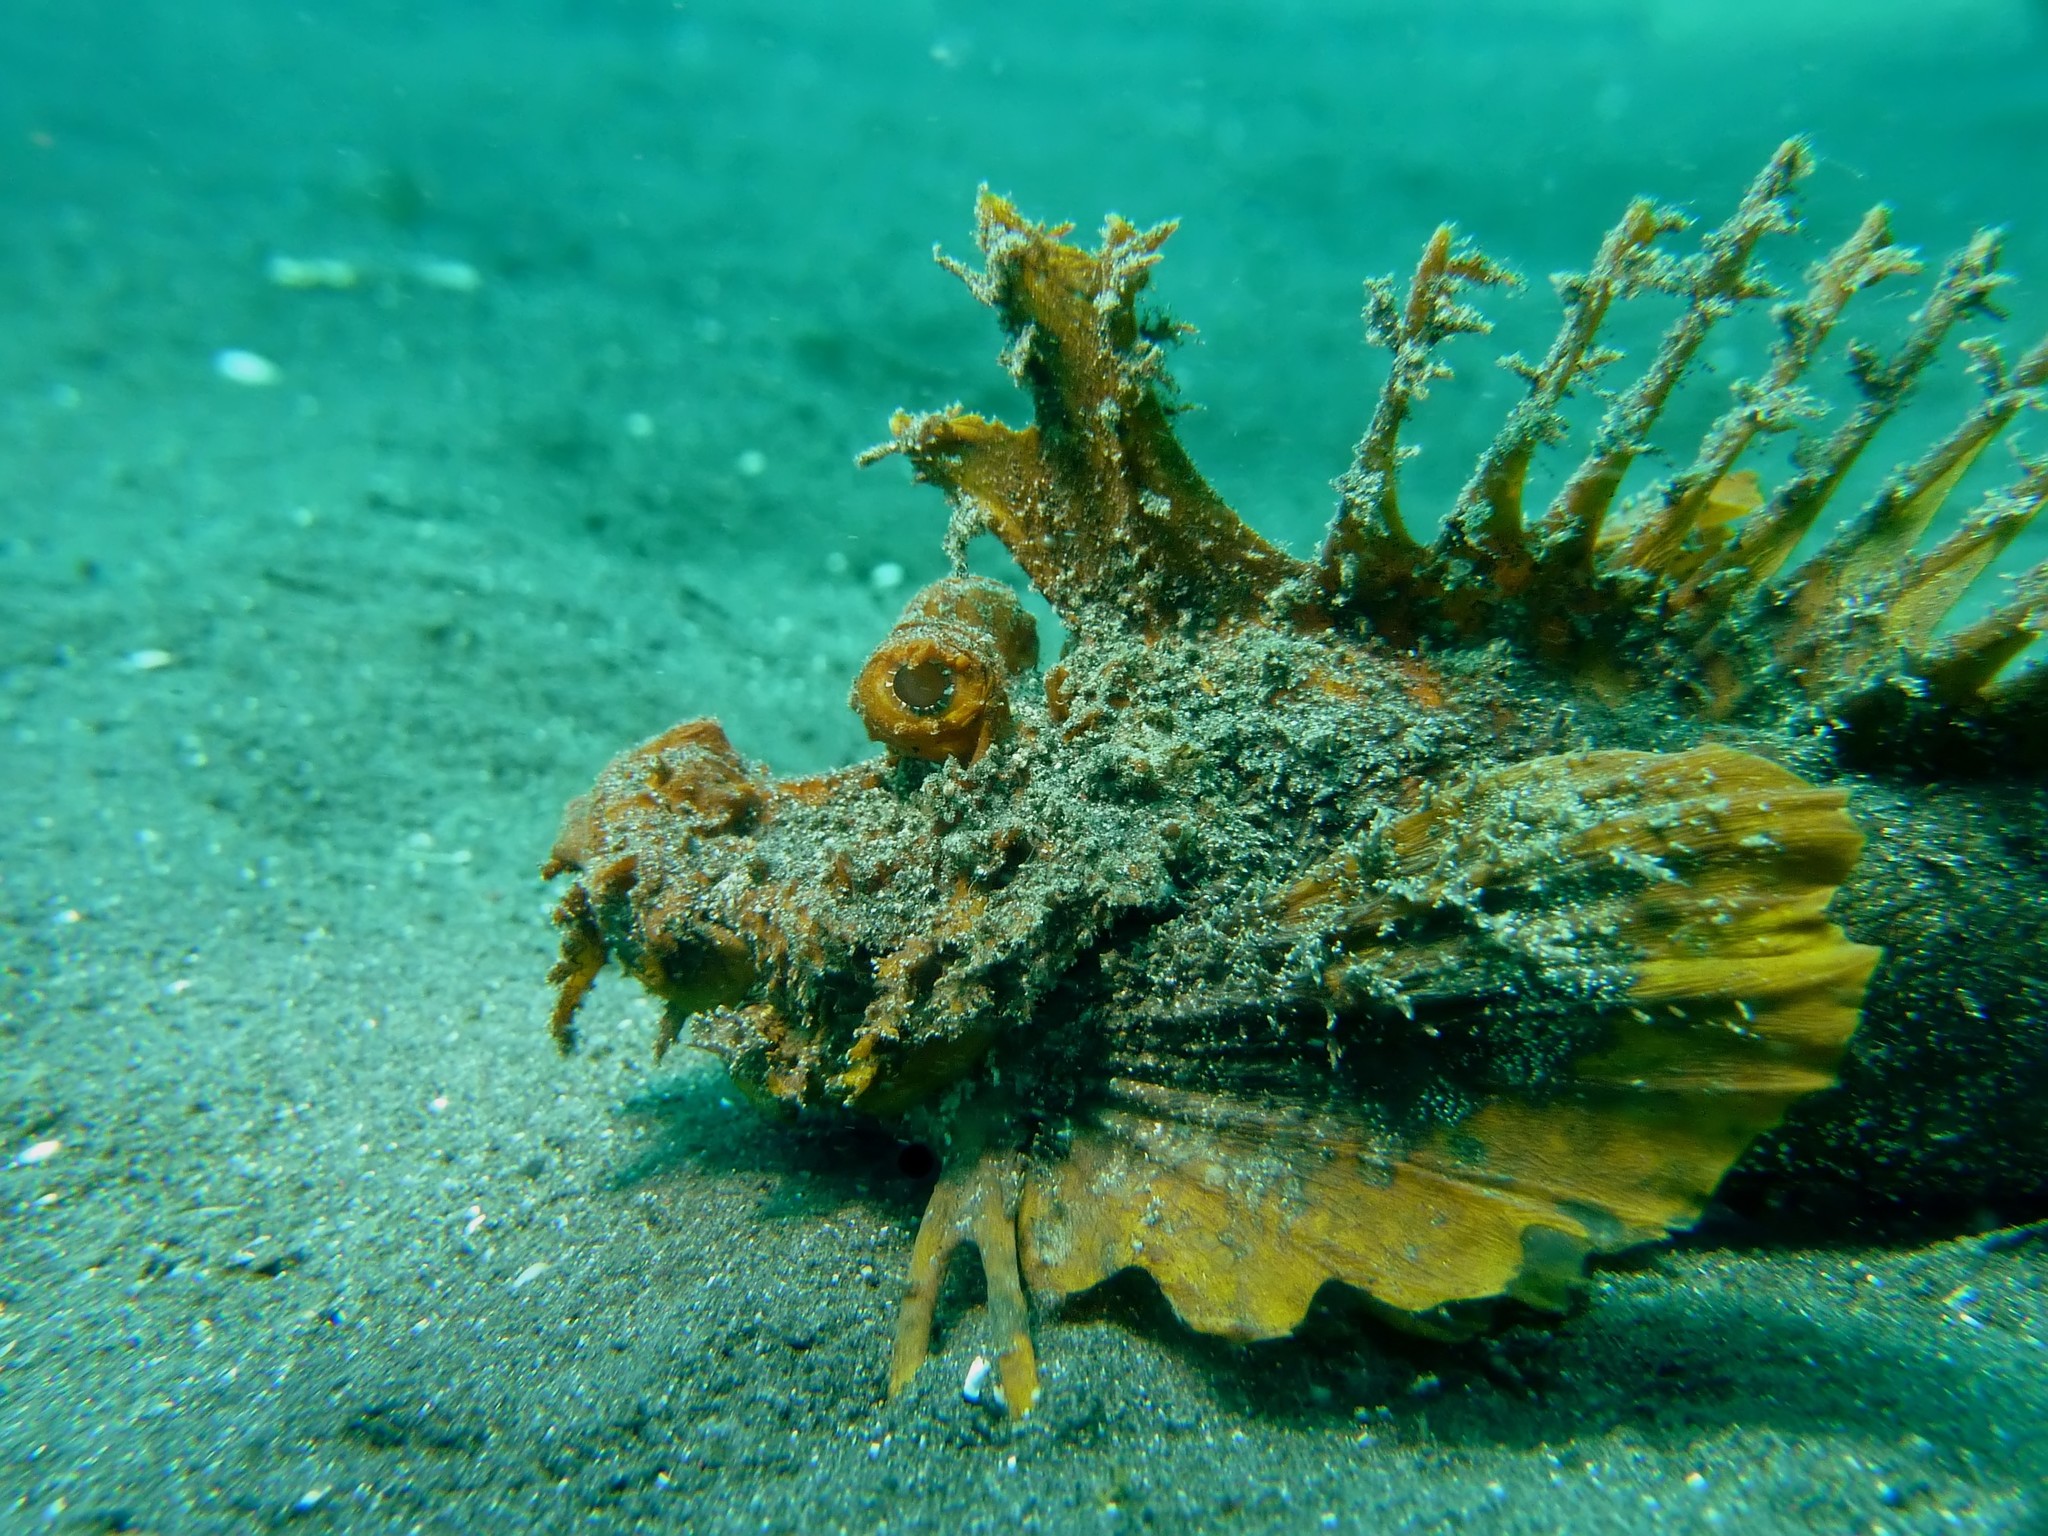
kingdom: Animalia
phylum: Chordata
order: Scorpaeniformes
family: Synanceiidae
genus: Inimicus
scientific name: Inimicus didactylus
